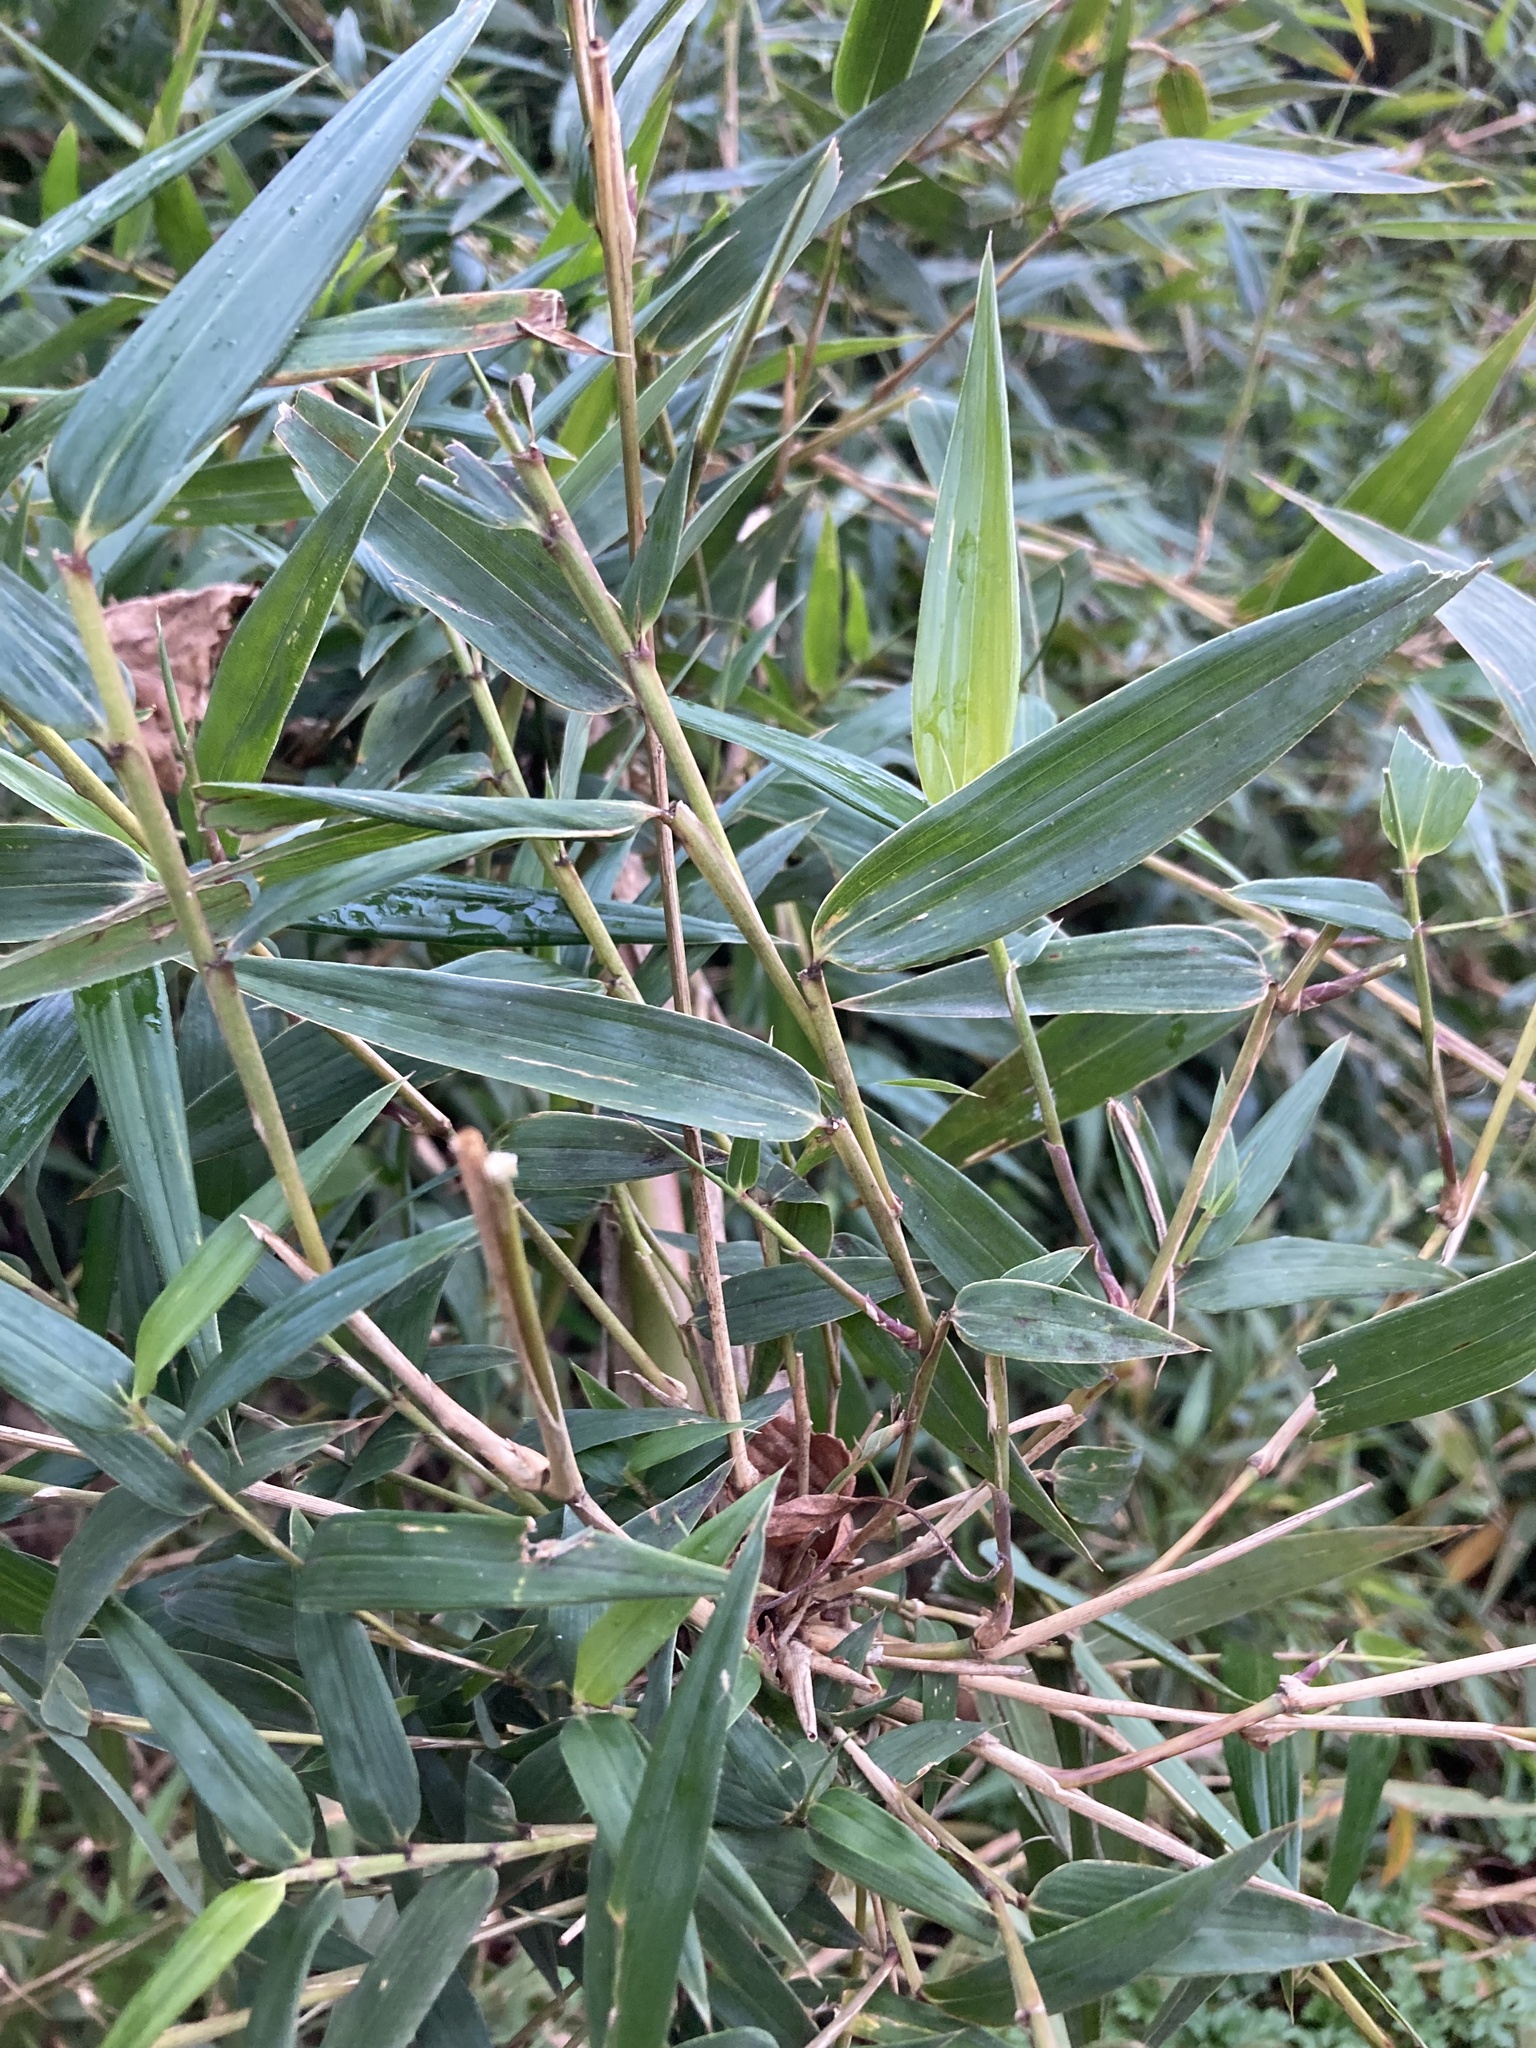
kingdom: Plantae
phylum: Tracheophyta
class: Liliopsida
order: Poales
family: Poaceae
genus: Chusquea
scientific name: Chusquea quila
